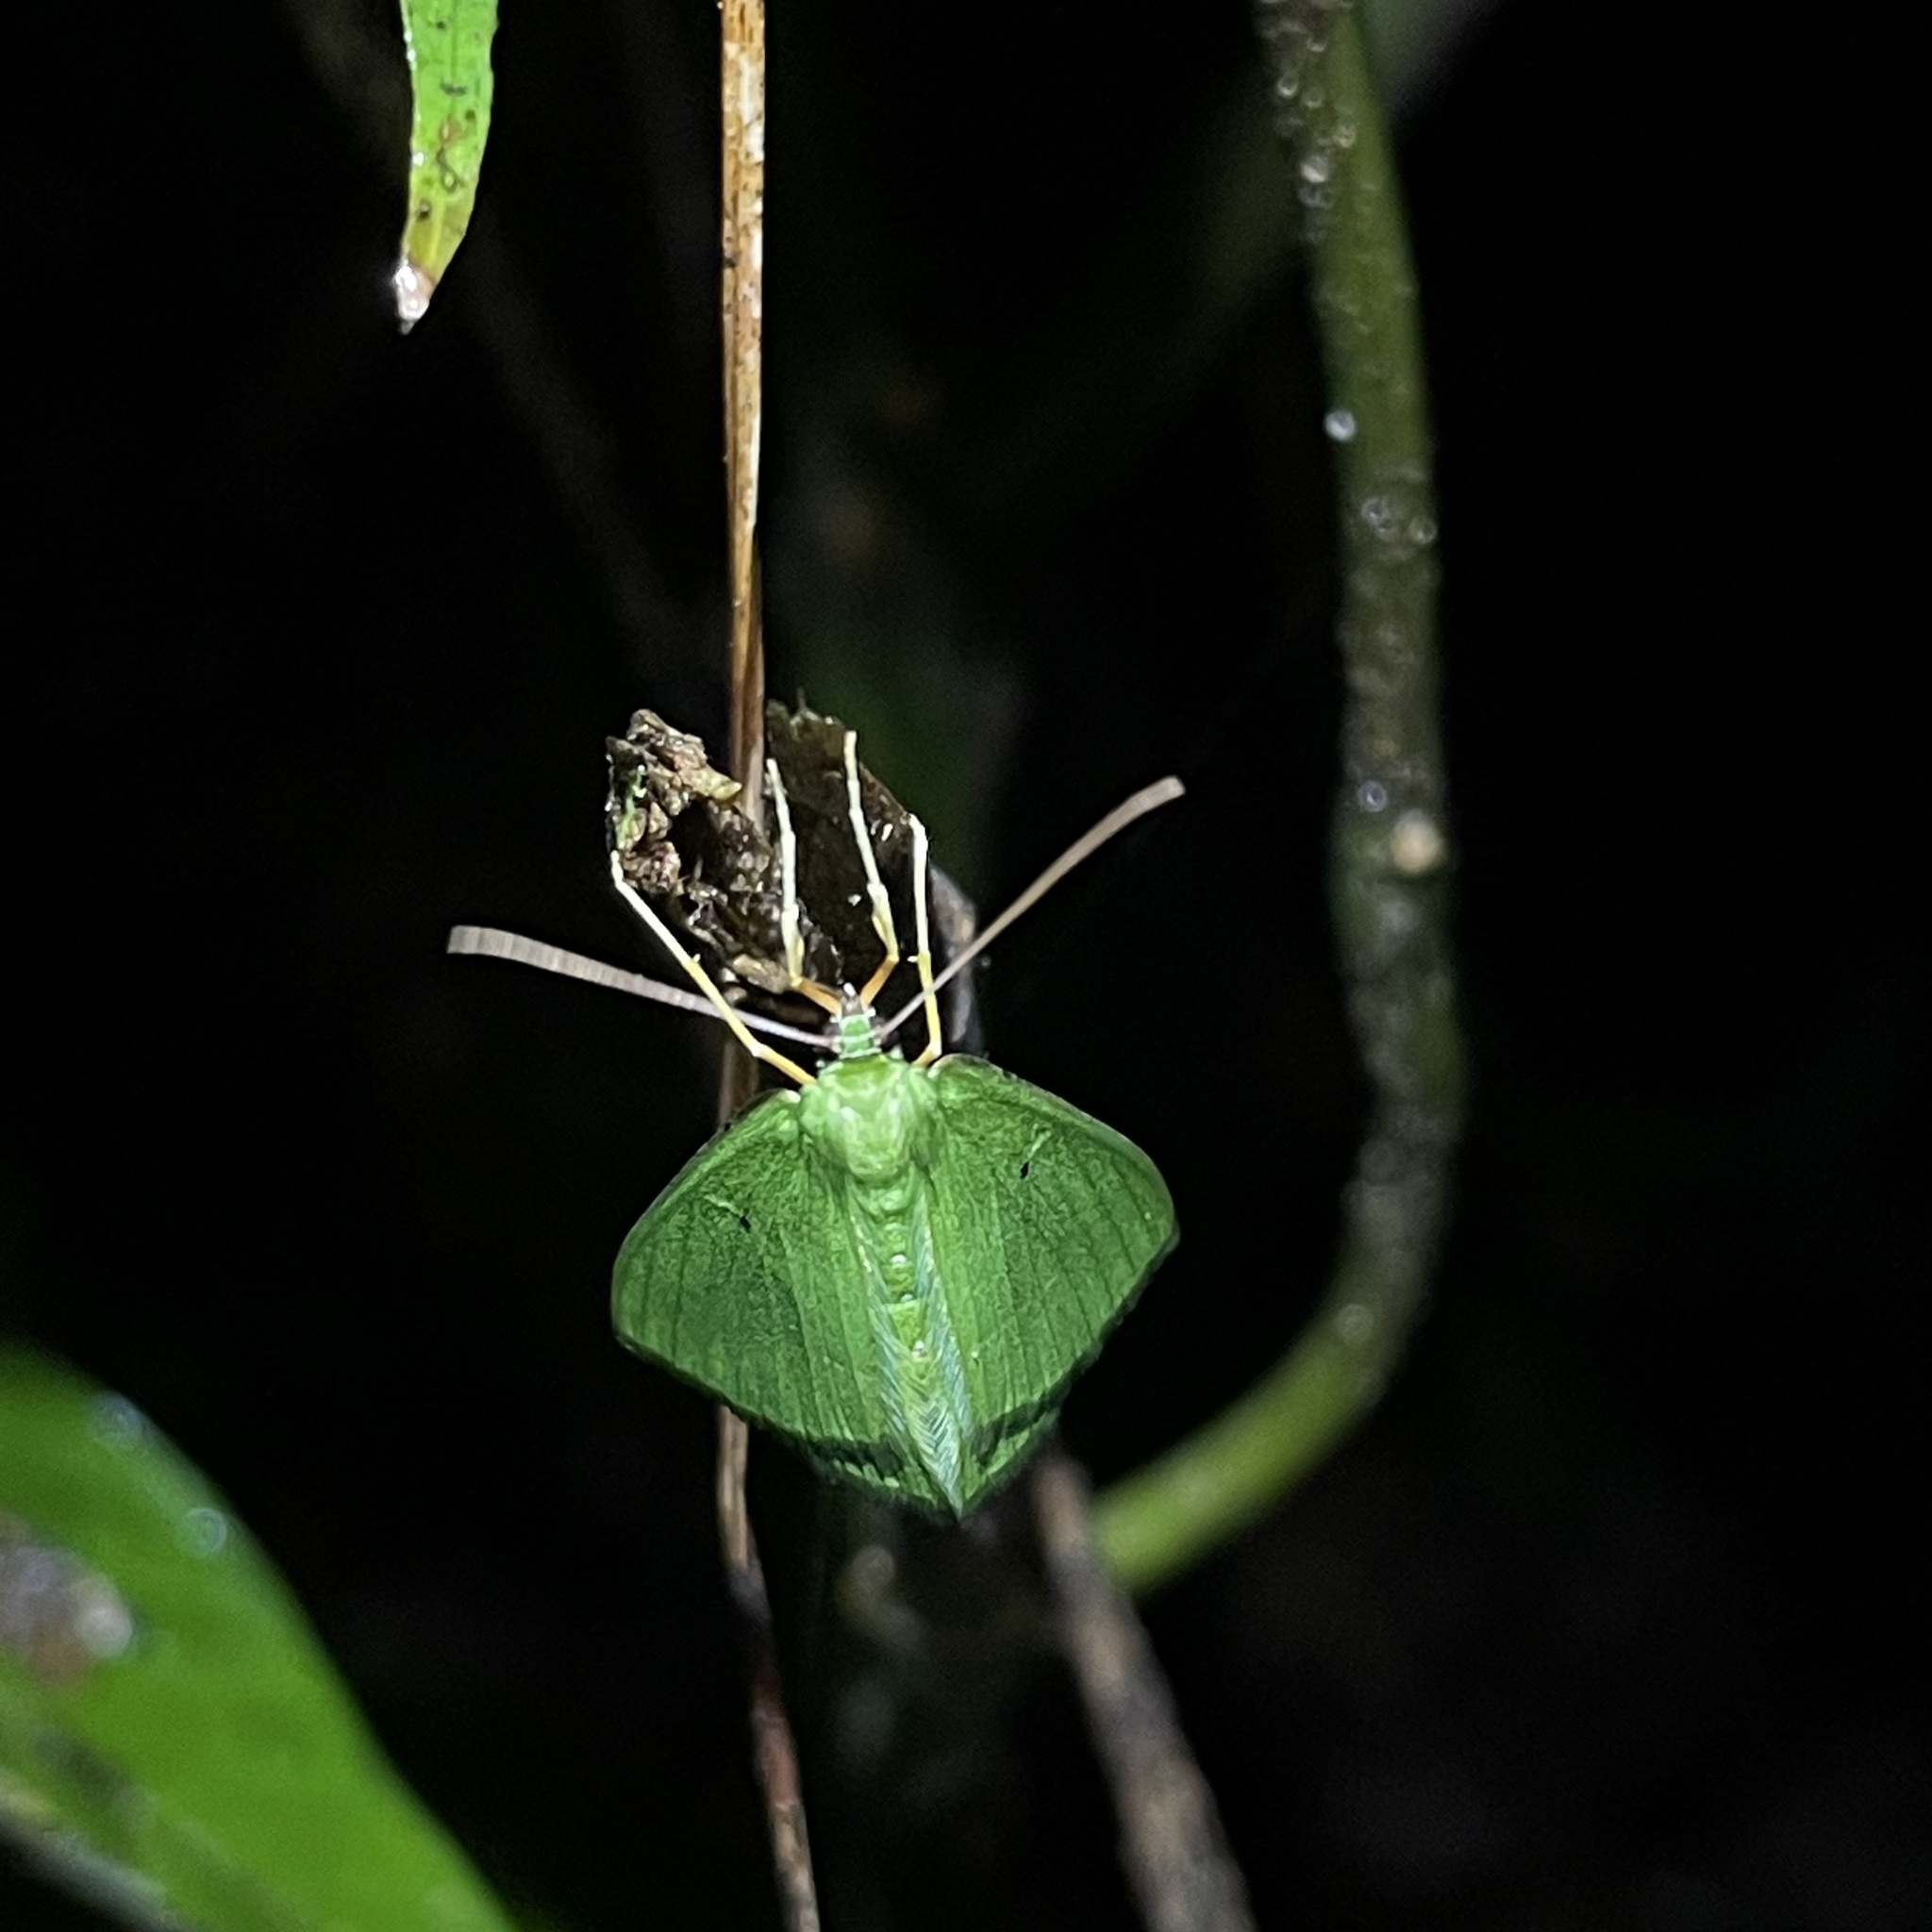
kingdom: Animalia
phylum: Arthropoda
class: Insecta
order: Lepidoptera
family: Geometridae
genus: Phrudocentra
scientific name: Phrudocentra pupillata
